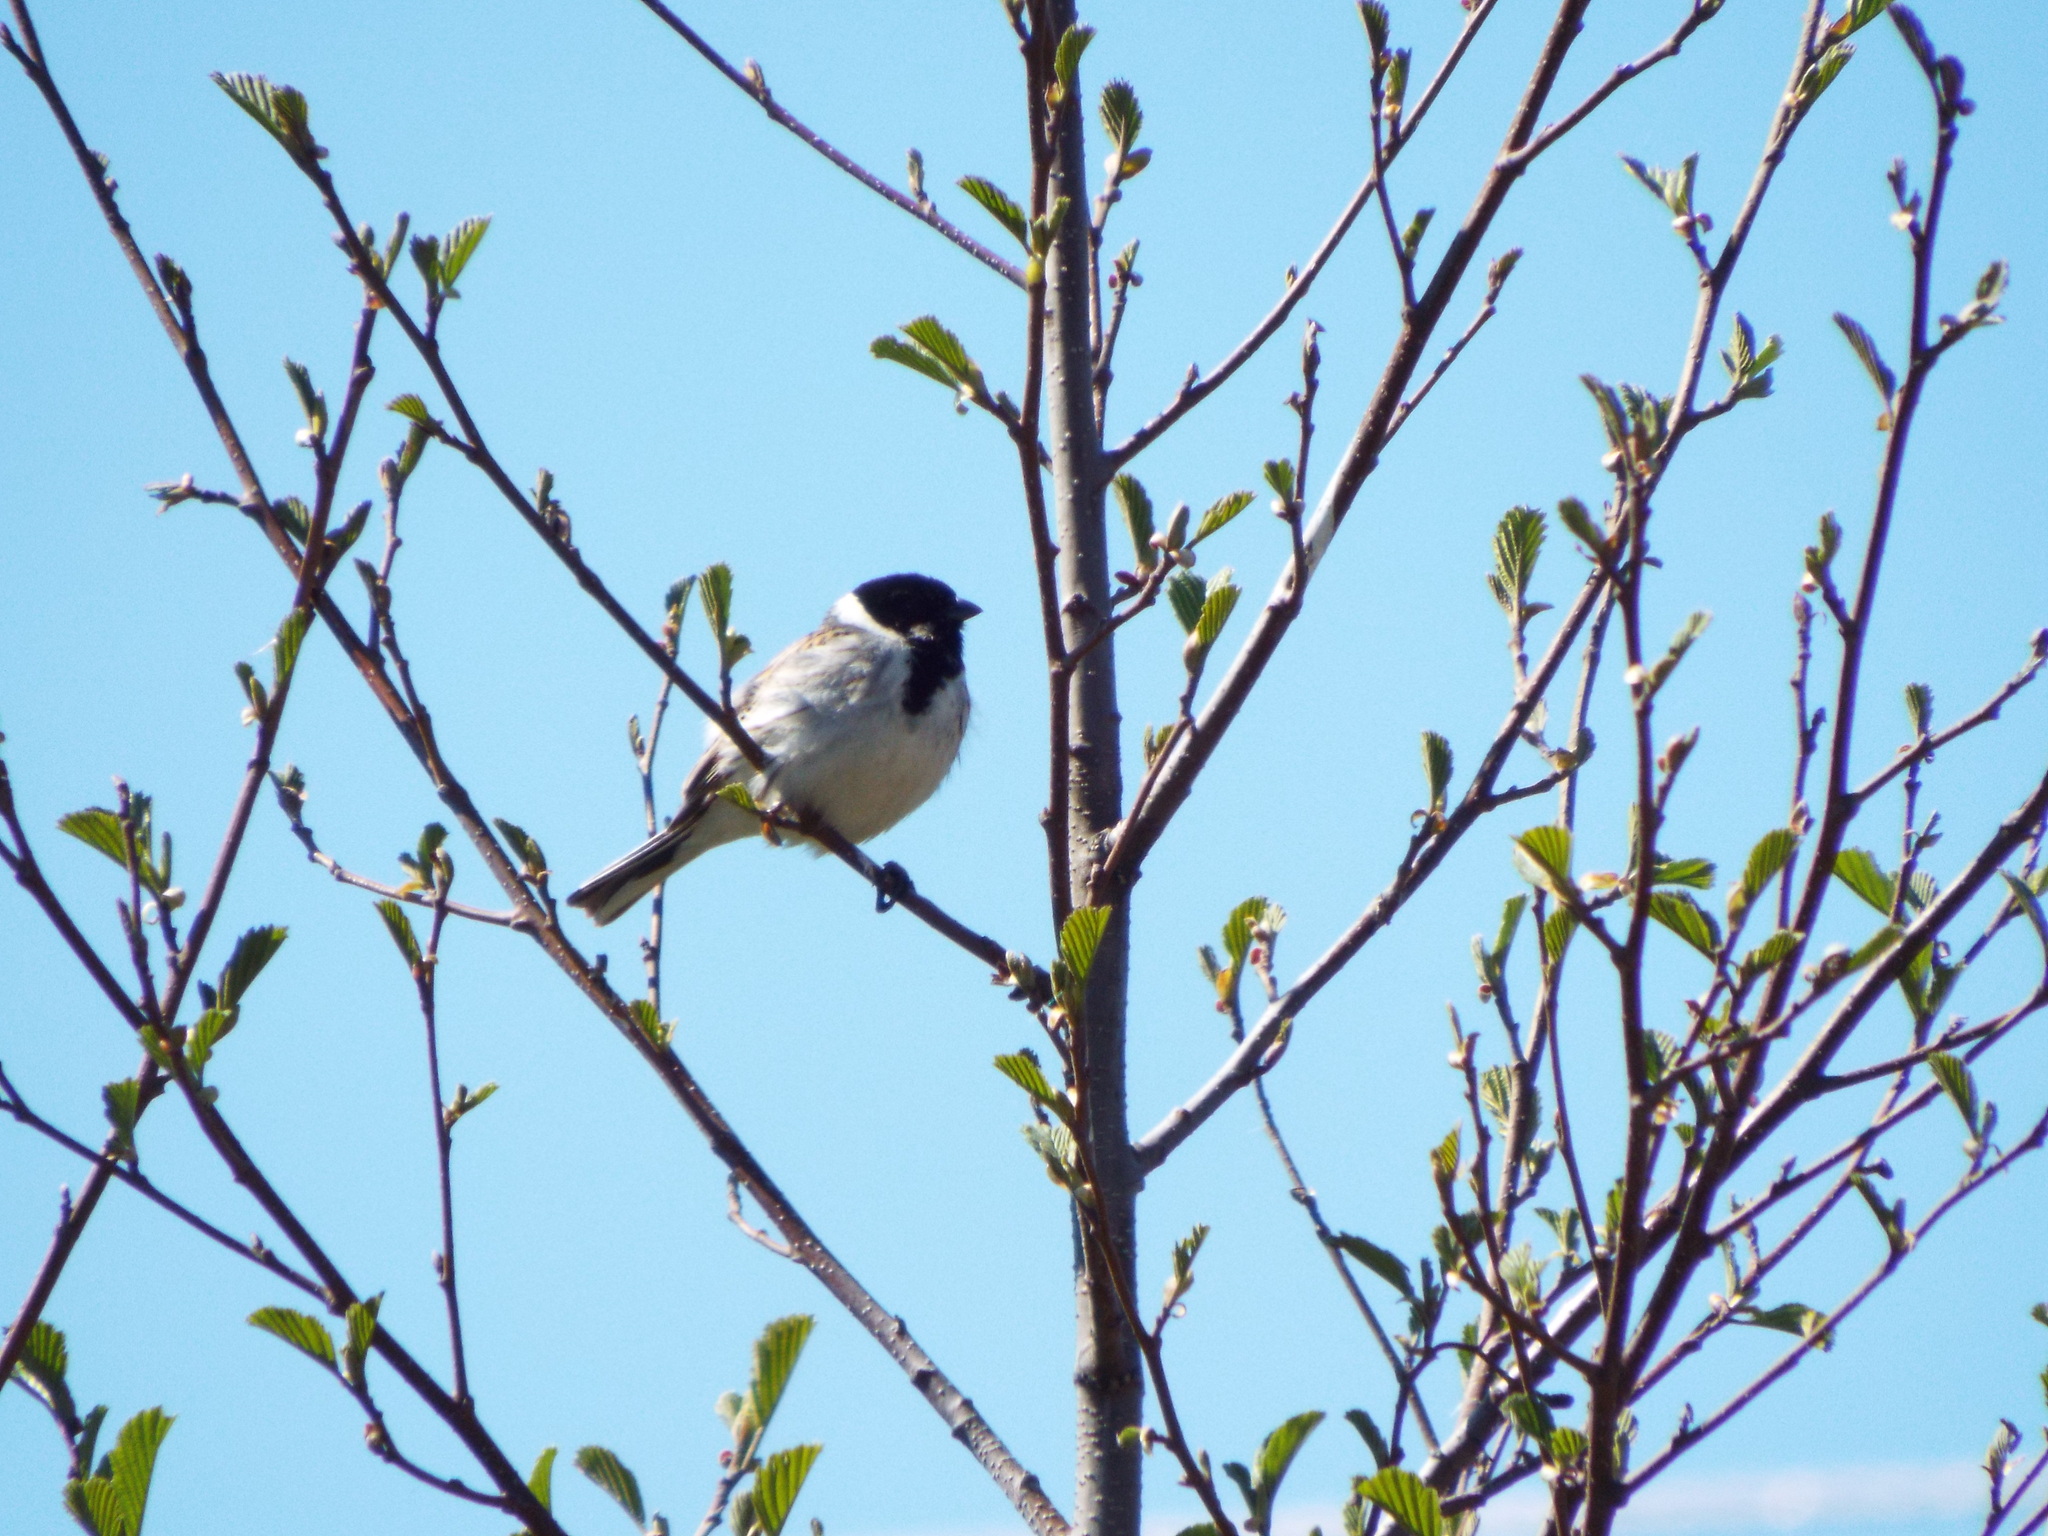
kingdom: Animalia
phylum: Chordata
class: Aves
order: Passeriformes
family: Emberizidae
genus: Emberiza
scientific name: Emberiza schoeniclus
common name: Reed bunting
